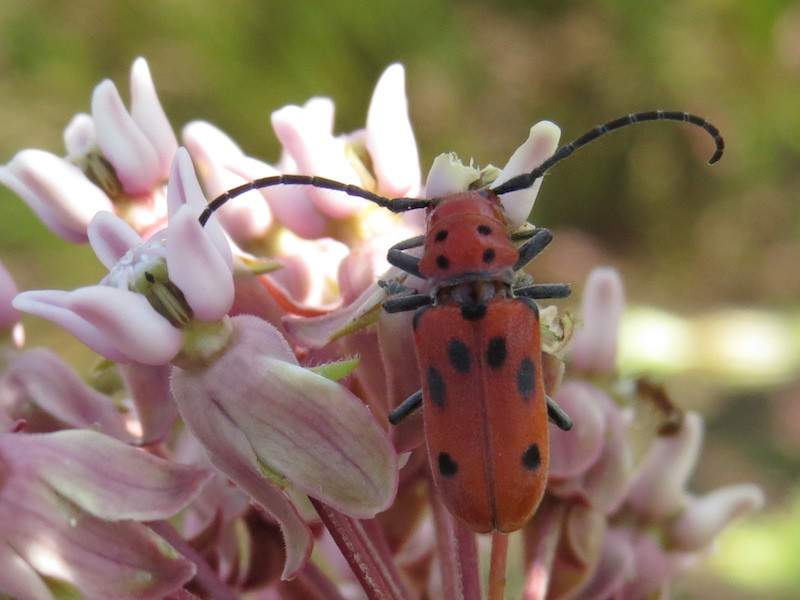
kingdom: Animalia
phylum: Arthropoda
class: Insecta
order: Coleoptera
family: Cerambycidae
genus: Tetraopes
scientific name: Tetraopes tetrophthalmus
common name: Red milkweed beetle
